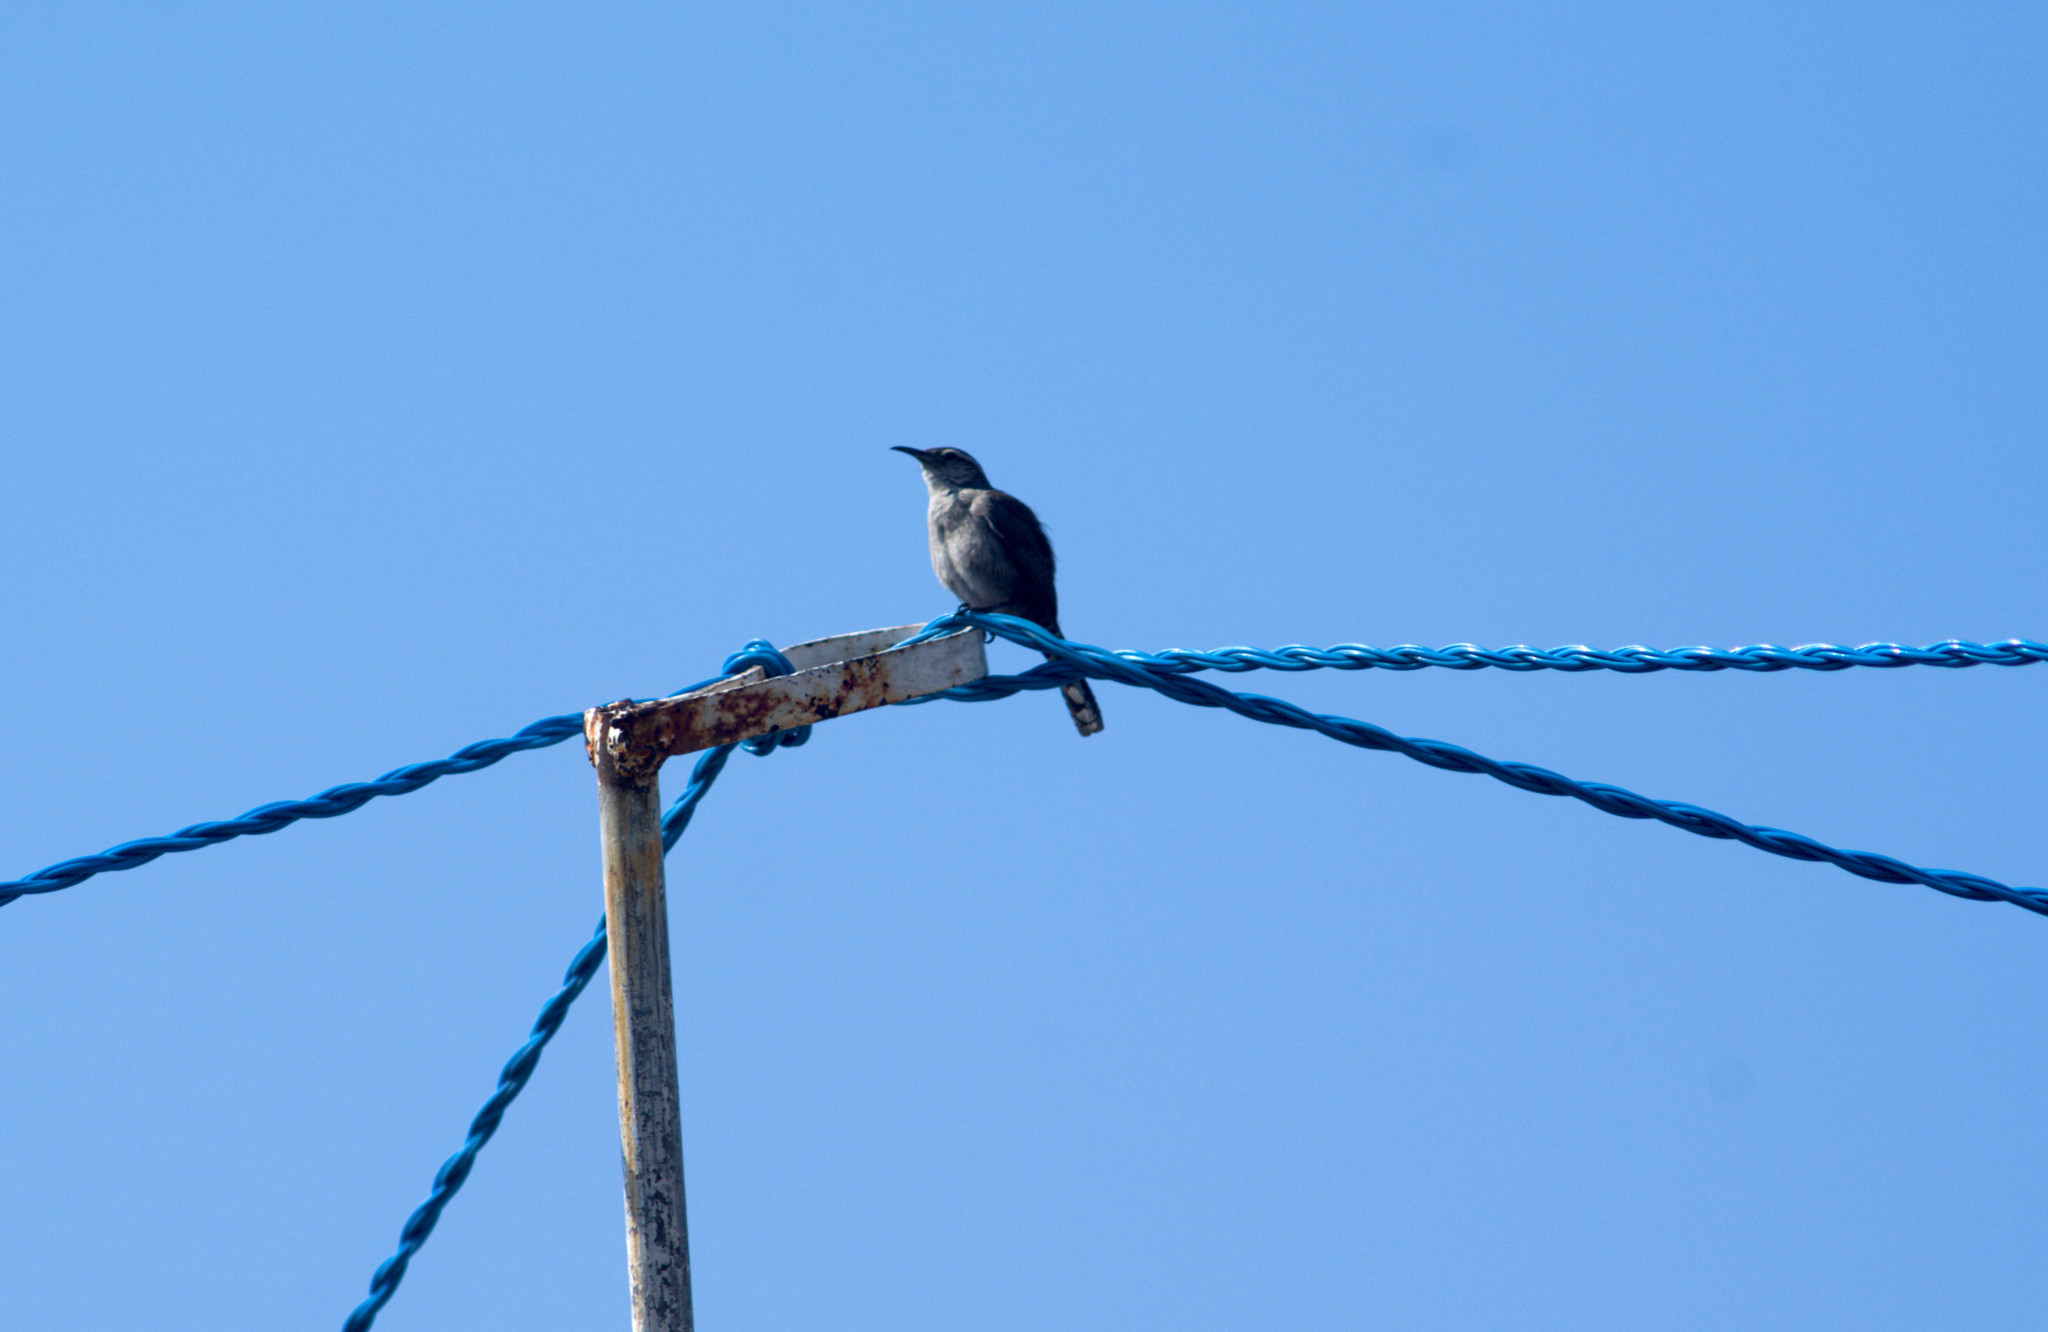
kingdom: Animalia
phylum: Chordata
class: Aves
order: Passeriformes
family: Troglodytidae
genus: Thryomanes
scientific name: Thryomanes bewickii
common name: Bewick's wren
